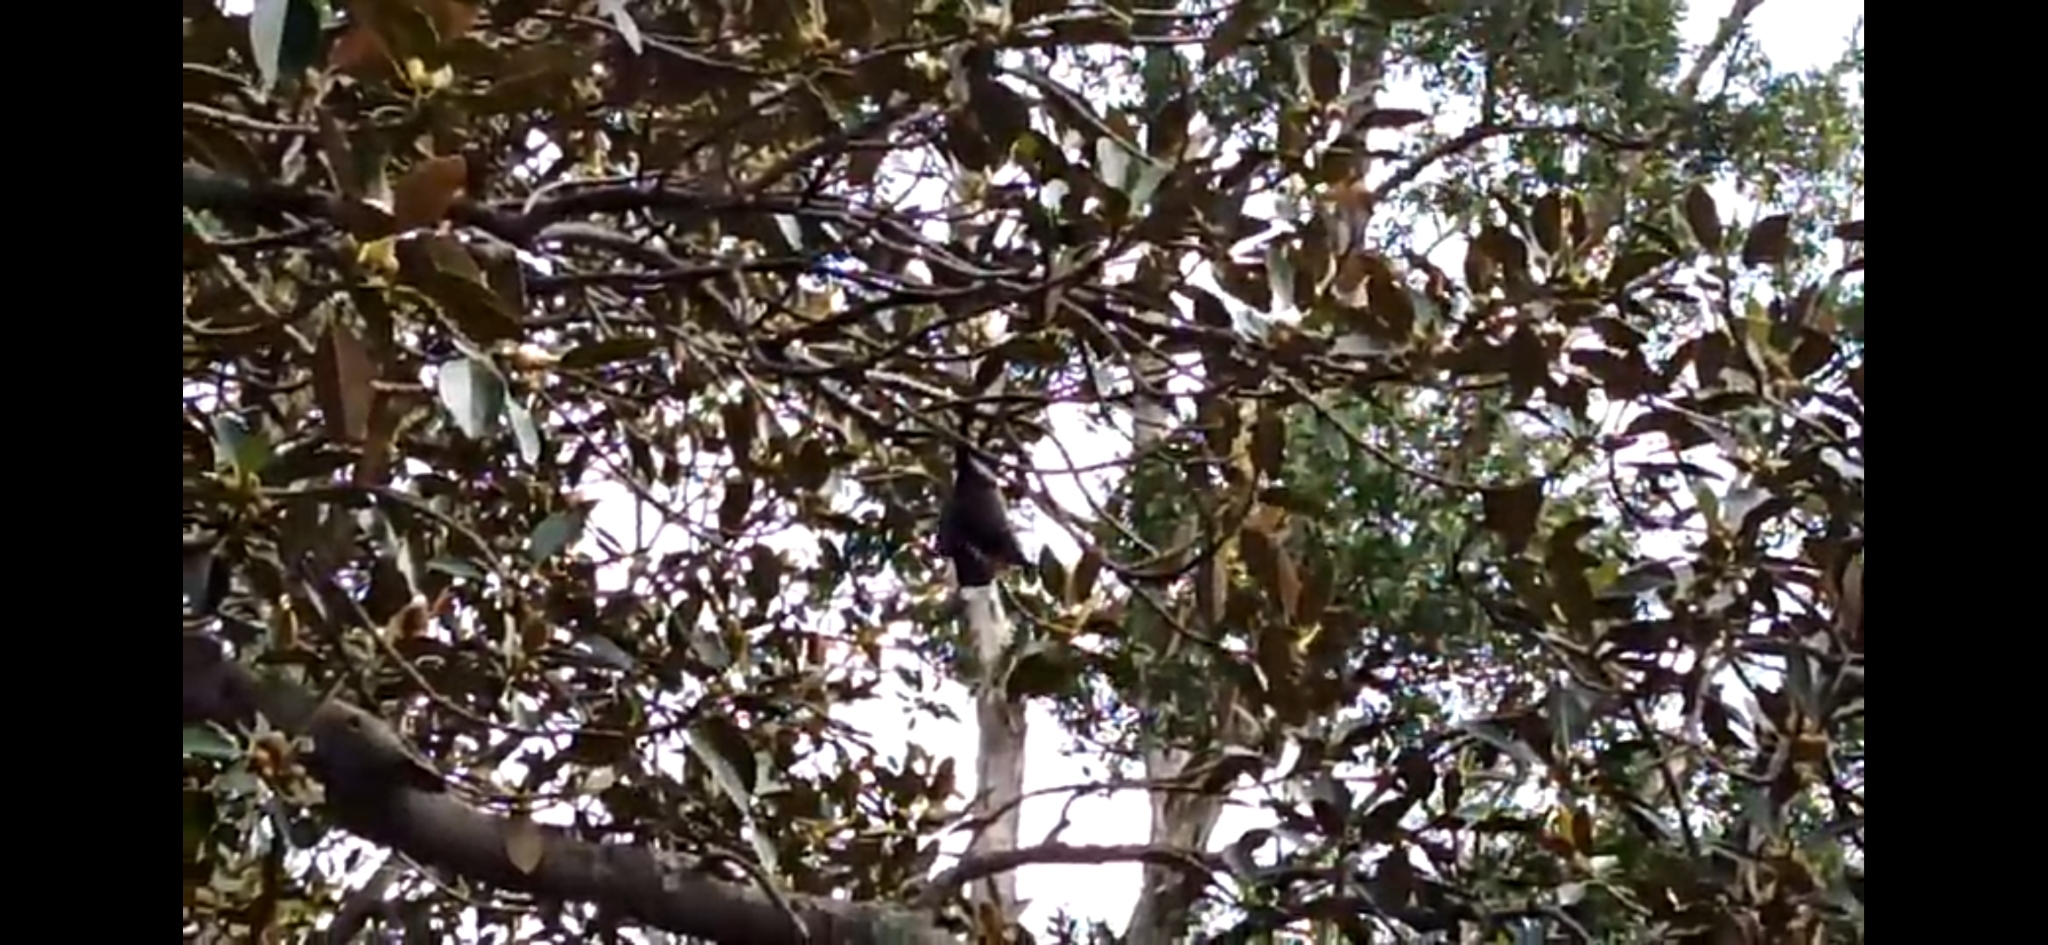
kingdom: Animalia
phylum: Chordata
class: Mammalia
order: Chiroptera
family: Pteropodidae
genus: Pteropus
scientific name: Pteropus poliocephalus
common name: Gray-headed flying fox
